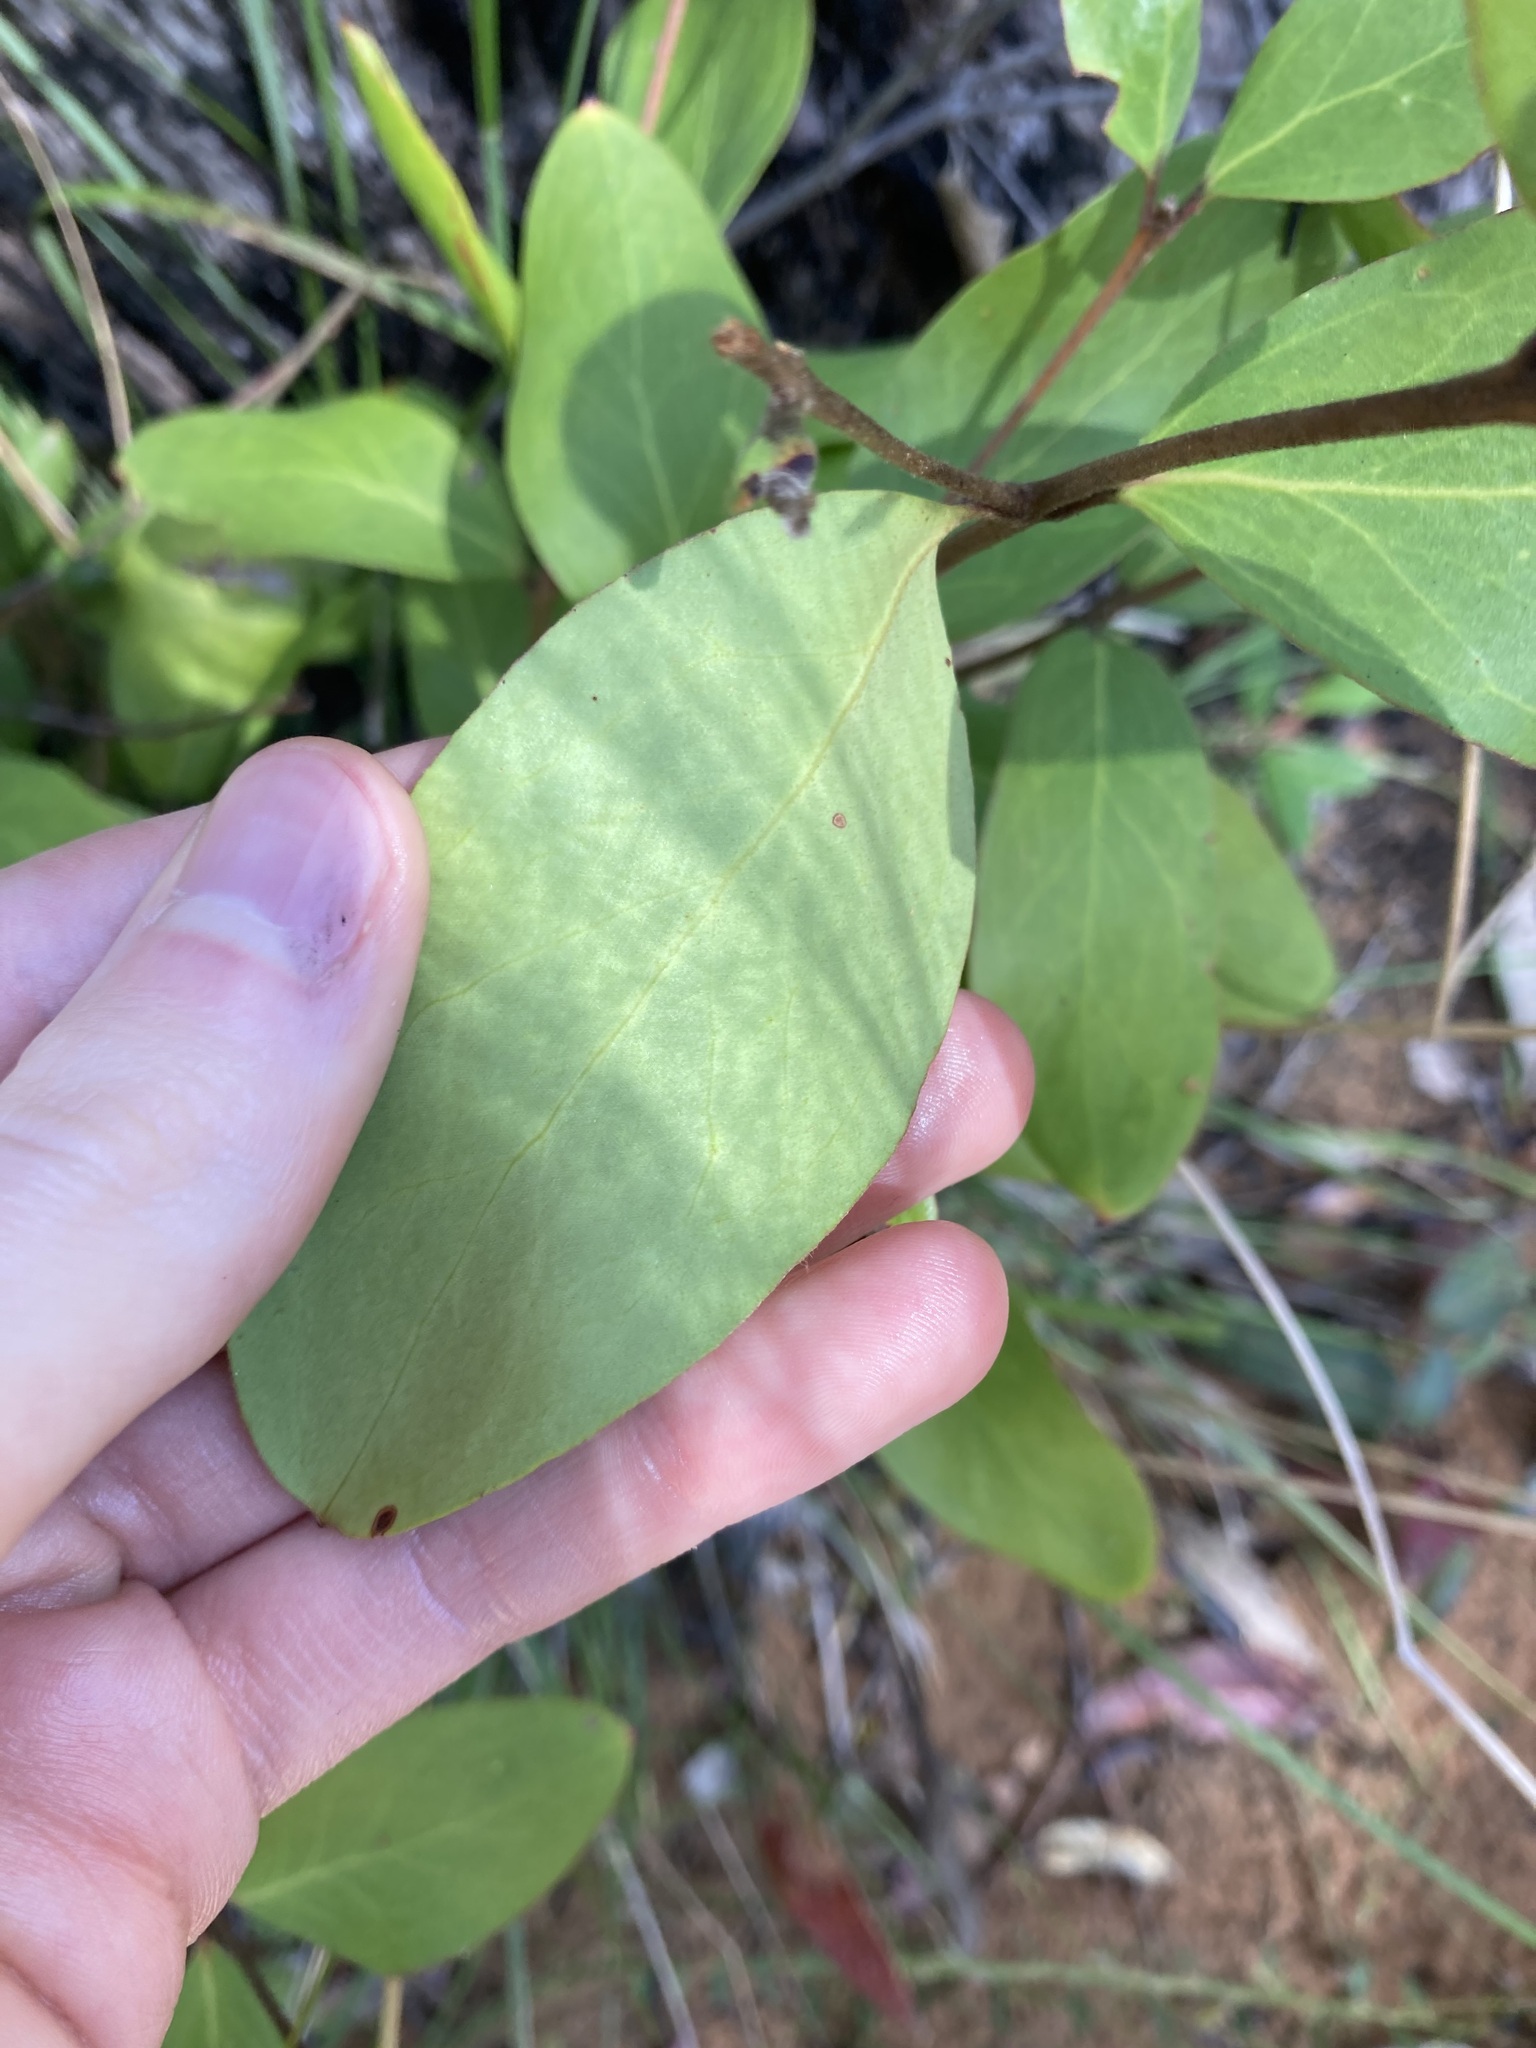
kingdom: Plantae
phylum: Tracheophyta
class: Magnoliopsida
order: Proteales
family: Proteaceae
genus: Persoonia
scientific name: Persoonia laurina
